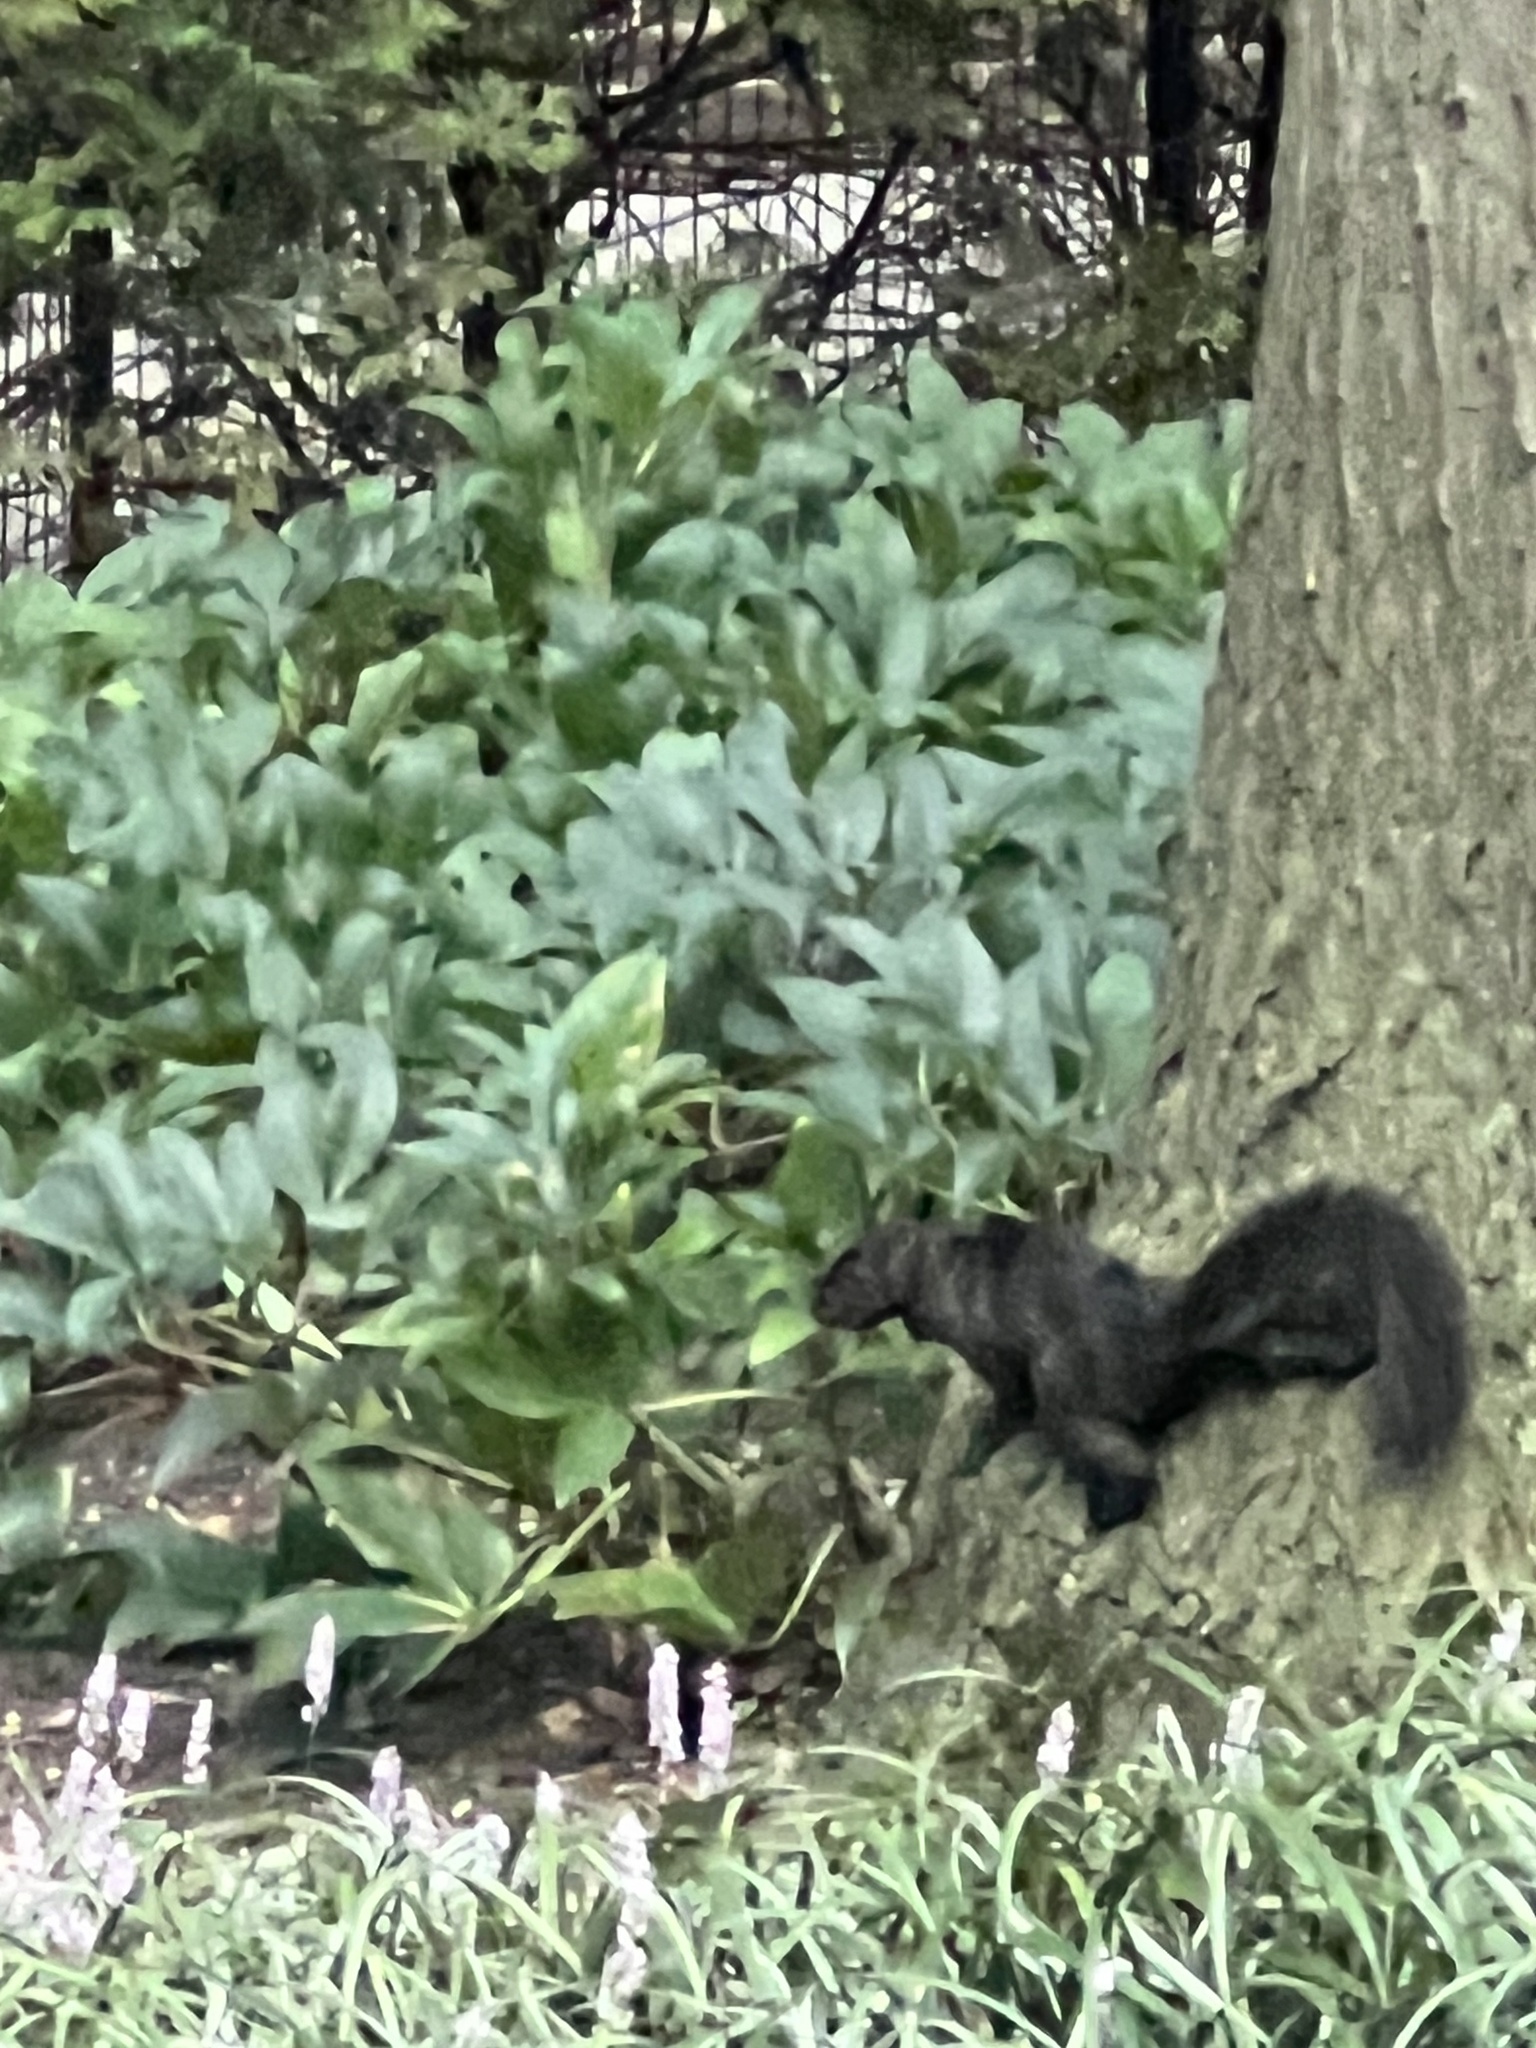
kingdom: Animalia
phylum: Chordata
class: Mammalia
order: Rodentia
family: Sciuridae
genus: Sciurus
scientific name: Sciurus carolinensis
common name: Eastern gray squirrel
